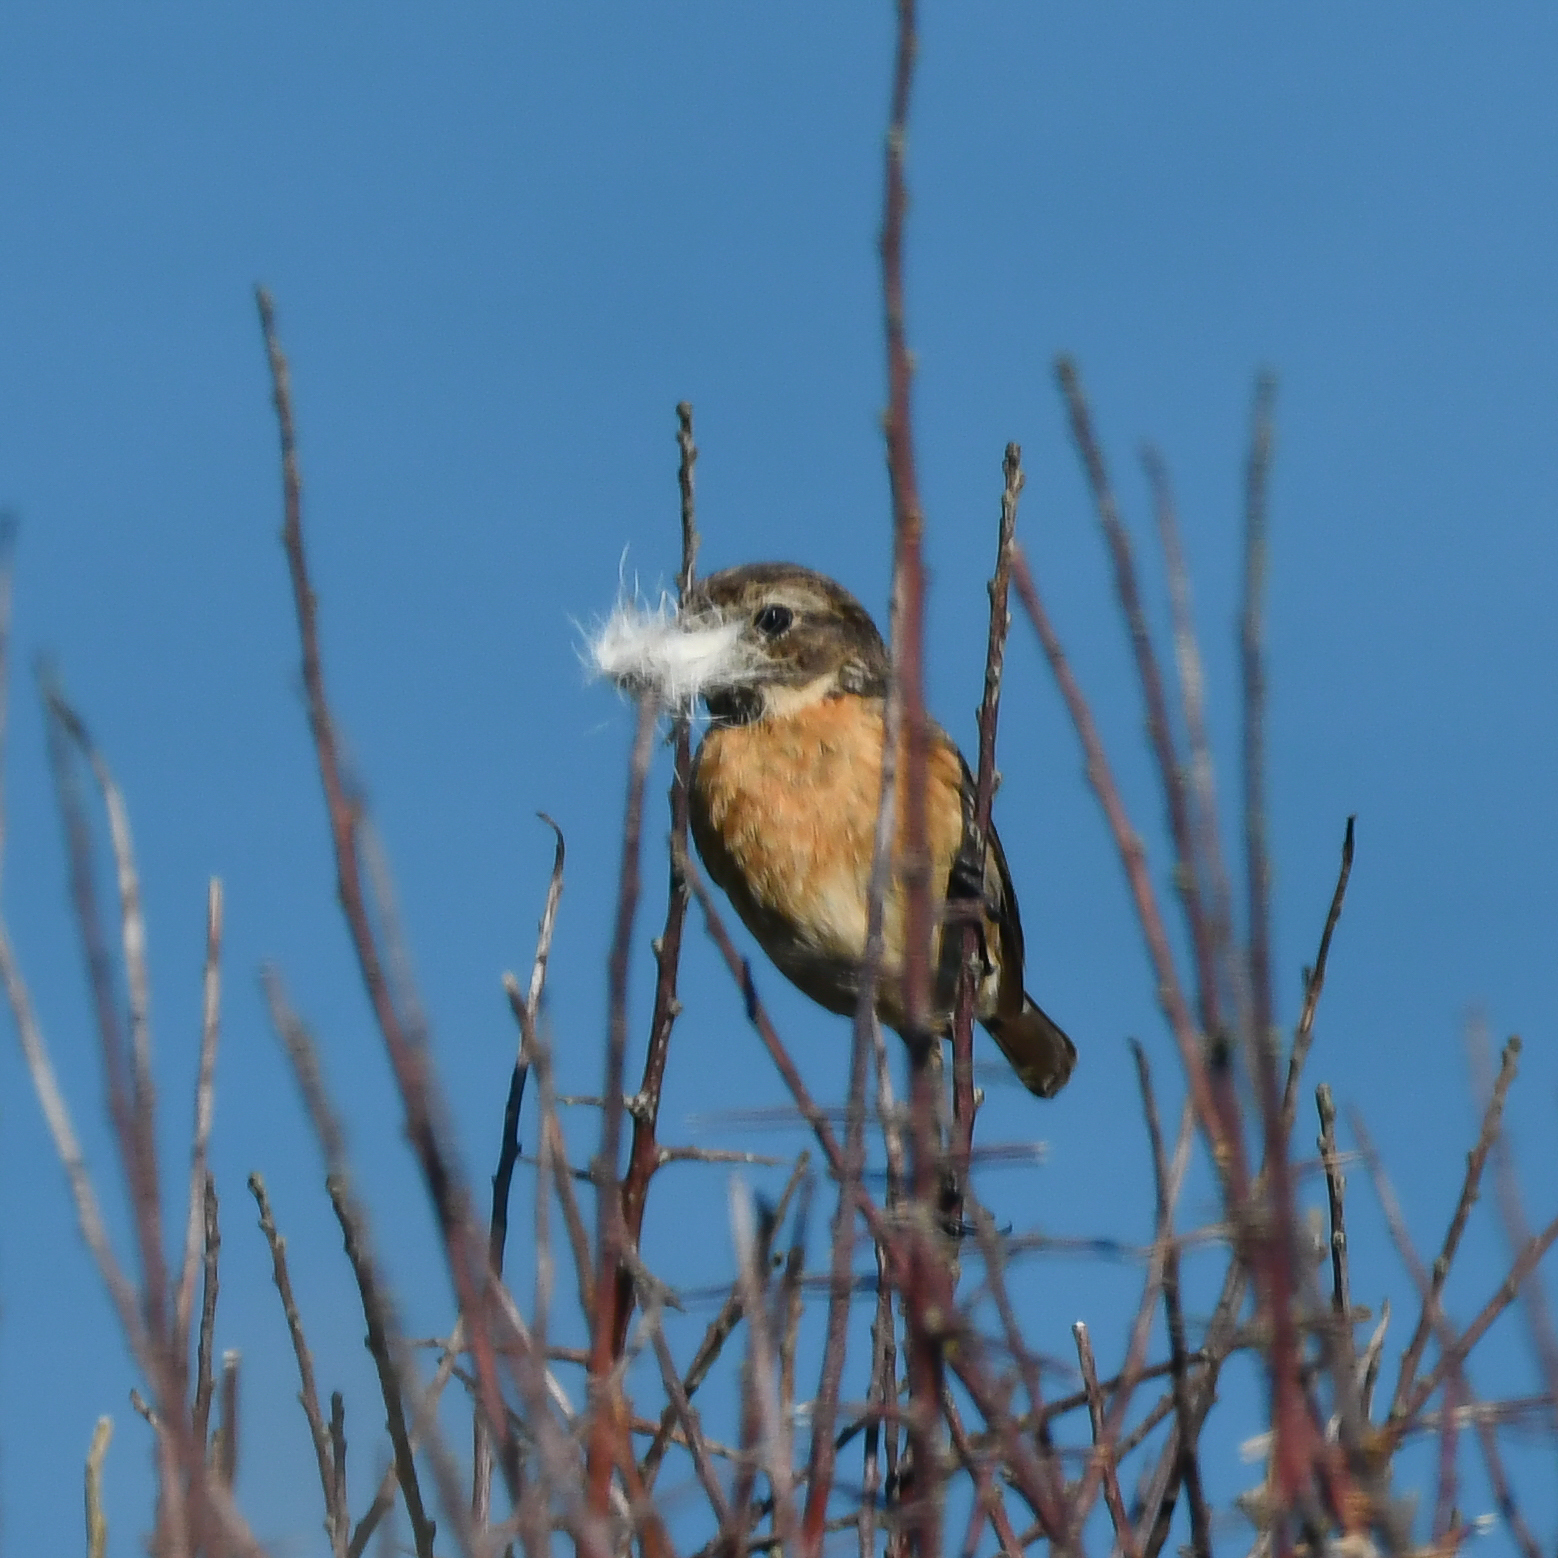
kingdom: Animalia
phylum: Chordata
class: Aves
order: Passeriformes
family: Muscicapidae
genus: Saxicola
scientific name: Saxicola rubicola
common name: European stonechat
